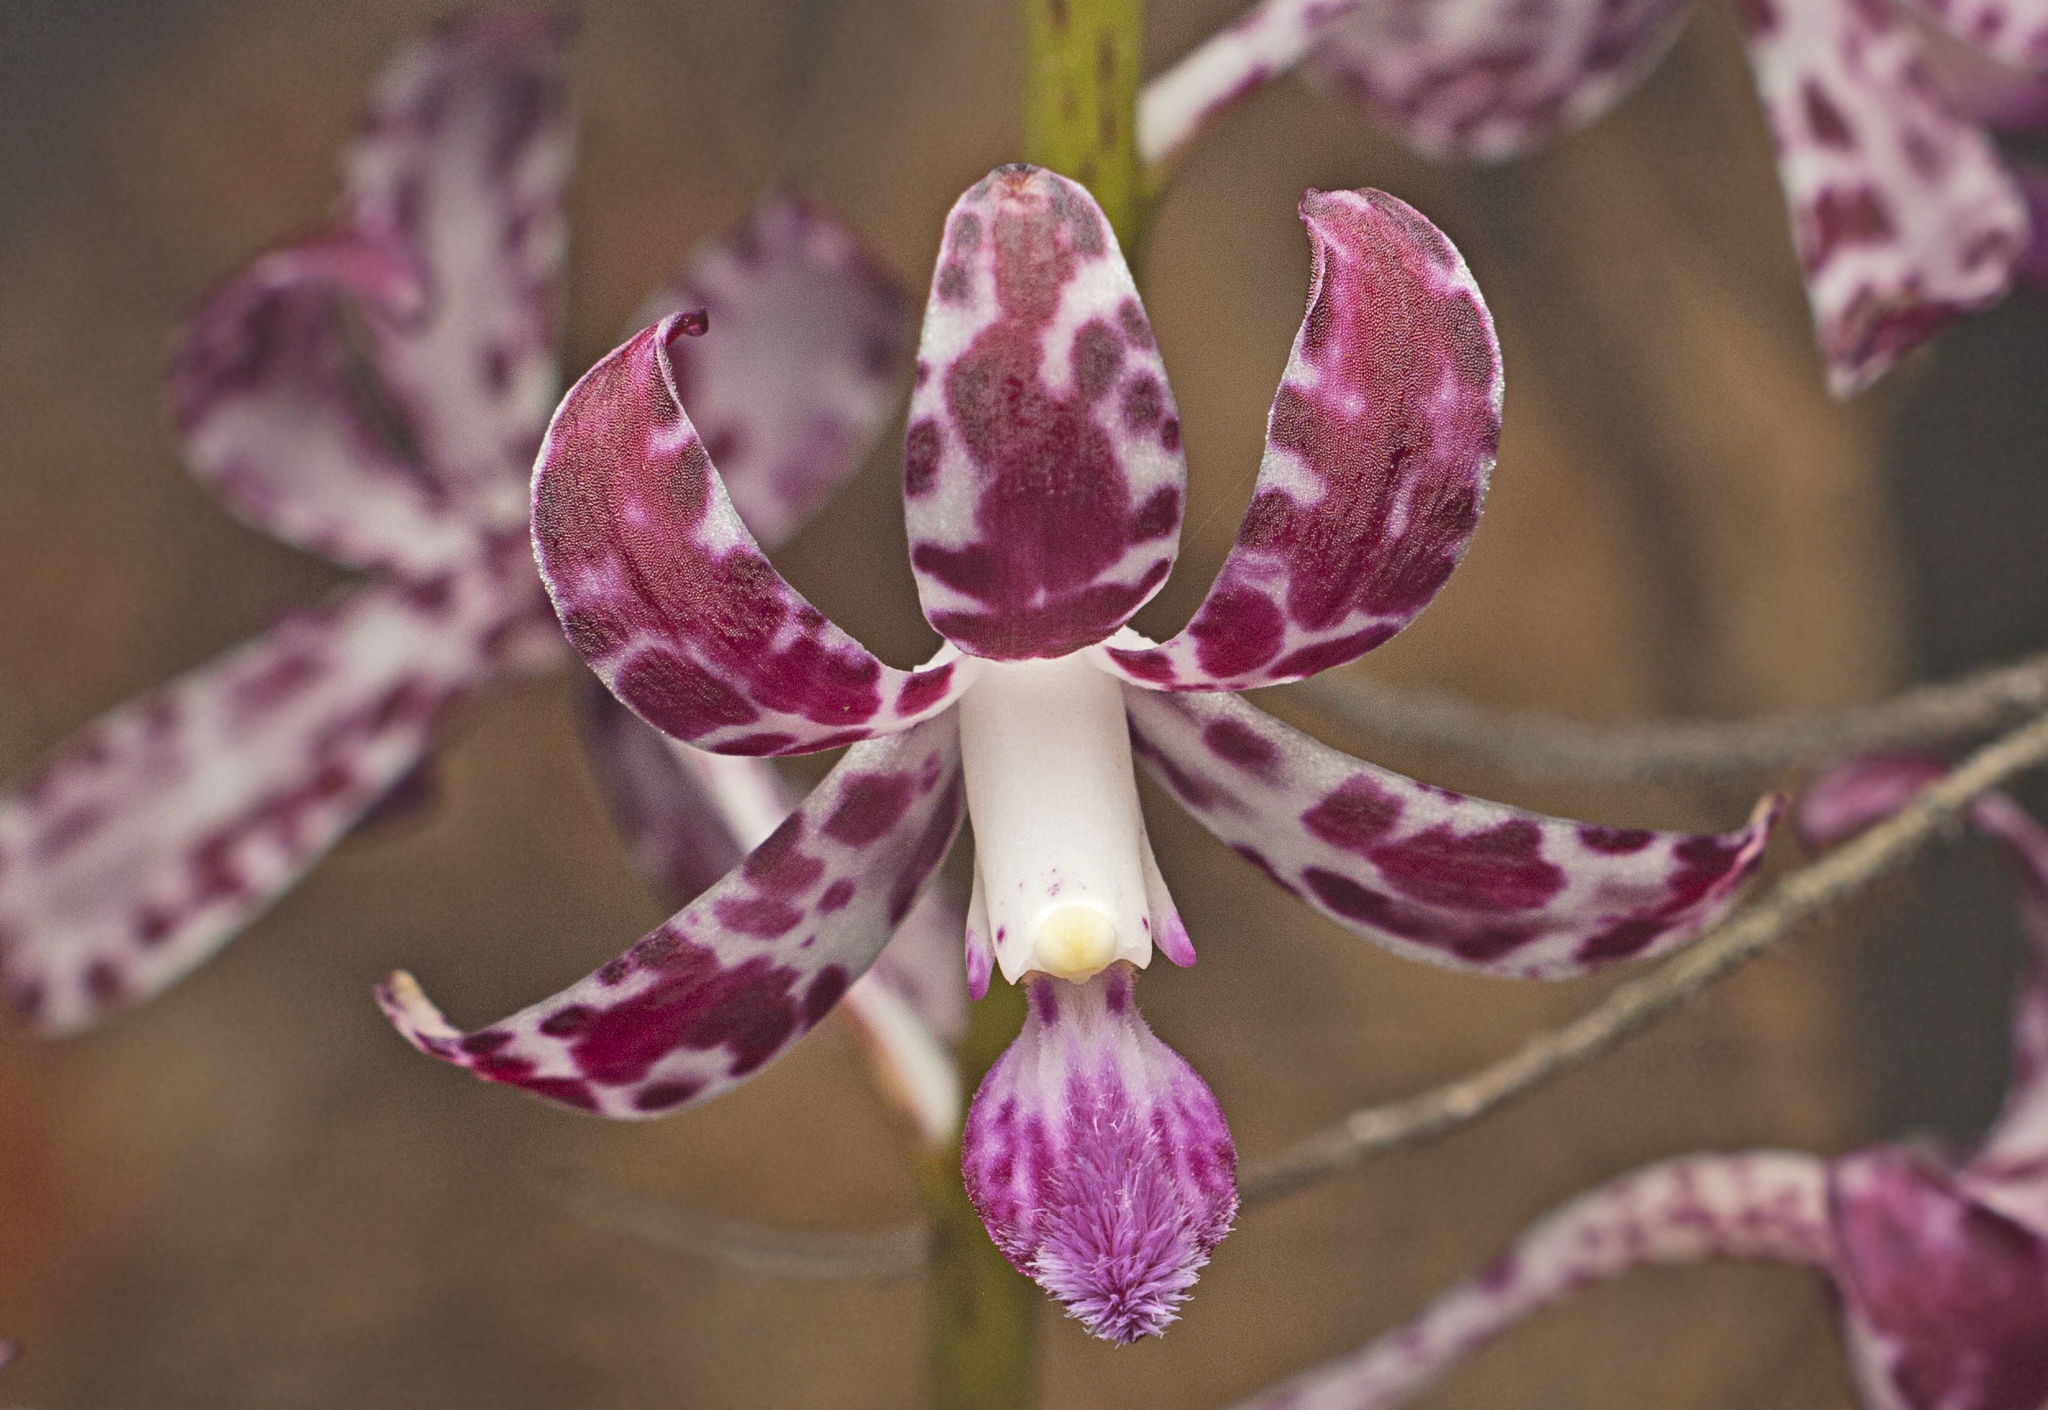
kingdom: Plantae
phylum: Tracheophyta
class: Liliopsida
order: Asparagales
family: Orchidaceae
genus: Dipodium
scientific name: Dipodium variegatum
